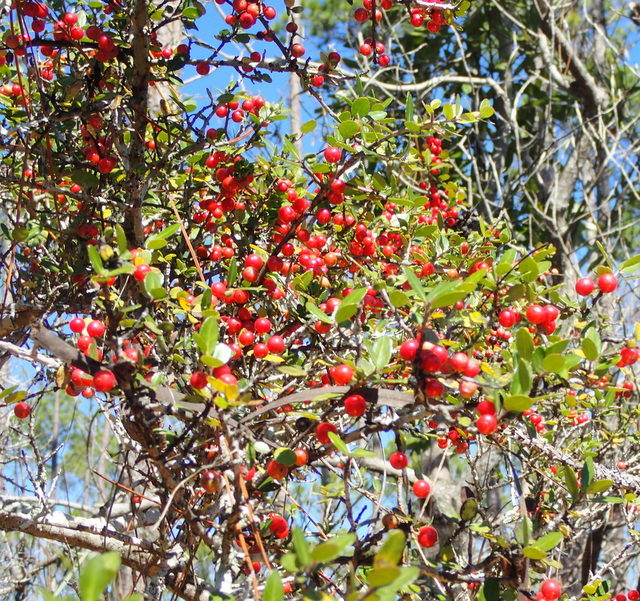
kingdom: Plantae
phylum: Tracheophyta
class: Magnoliopsida
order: Aquifoliales
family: Aquifoliaceae
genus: Ilex
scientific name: Ilex vomitoria
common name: Yaupon holly
